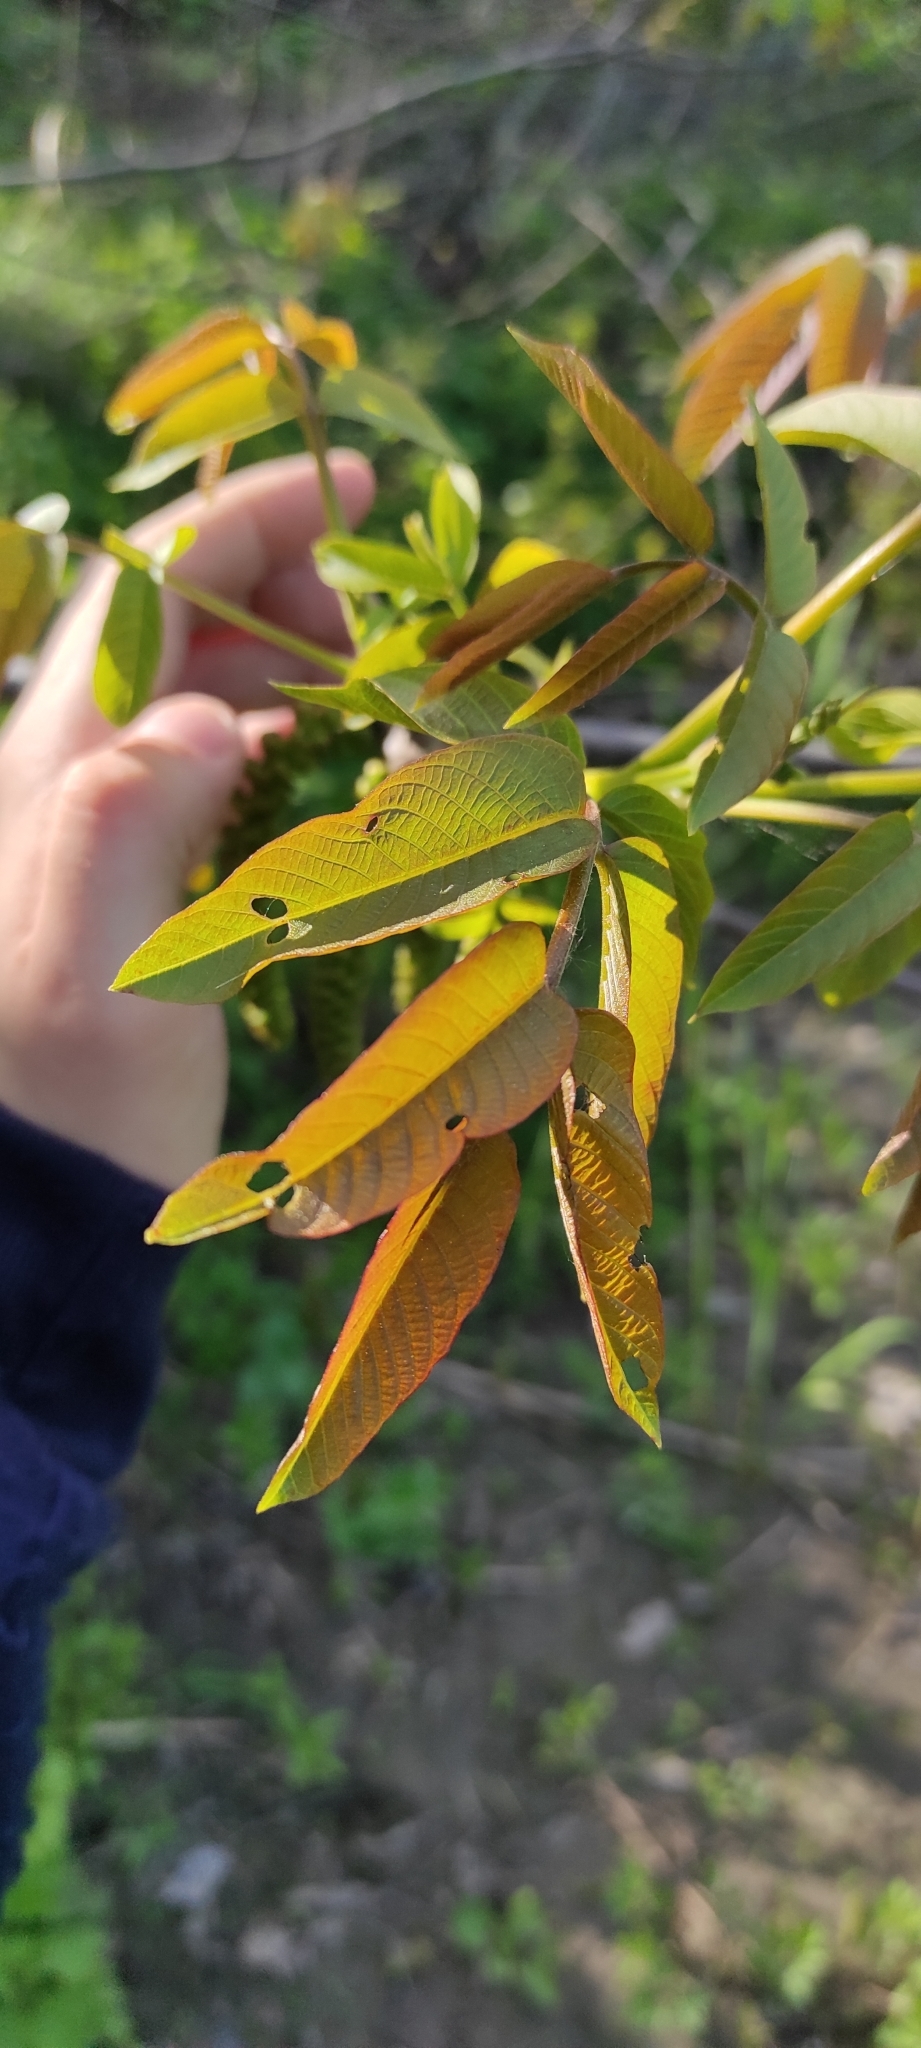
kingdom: Plantae
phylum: Tracheophyta
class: Magnoliopsida
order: Fagales
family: Betulaceae
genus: Alnus
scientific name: Alnus glutinosa
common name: Black alder
